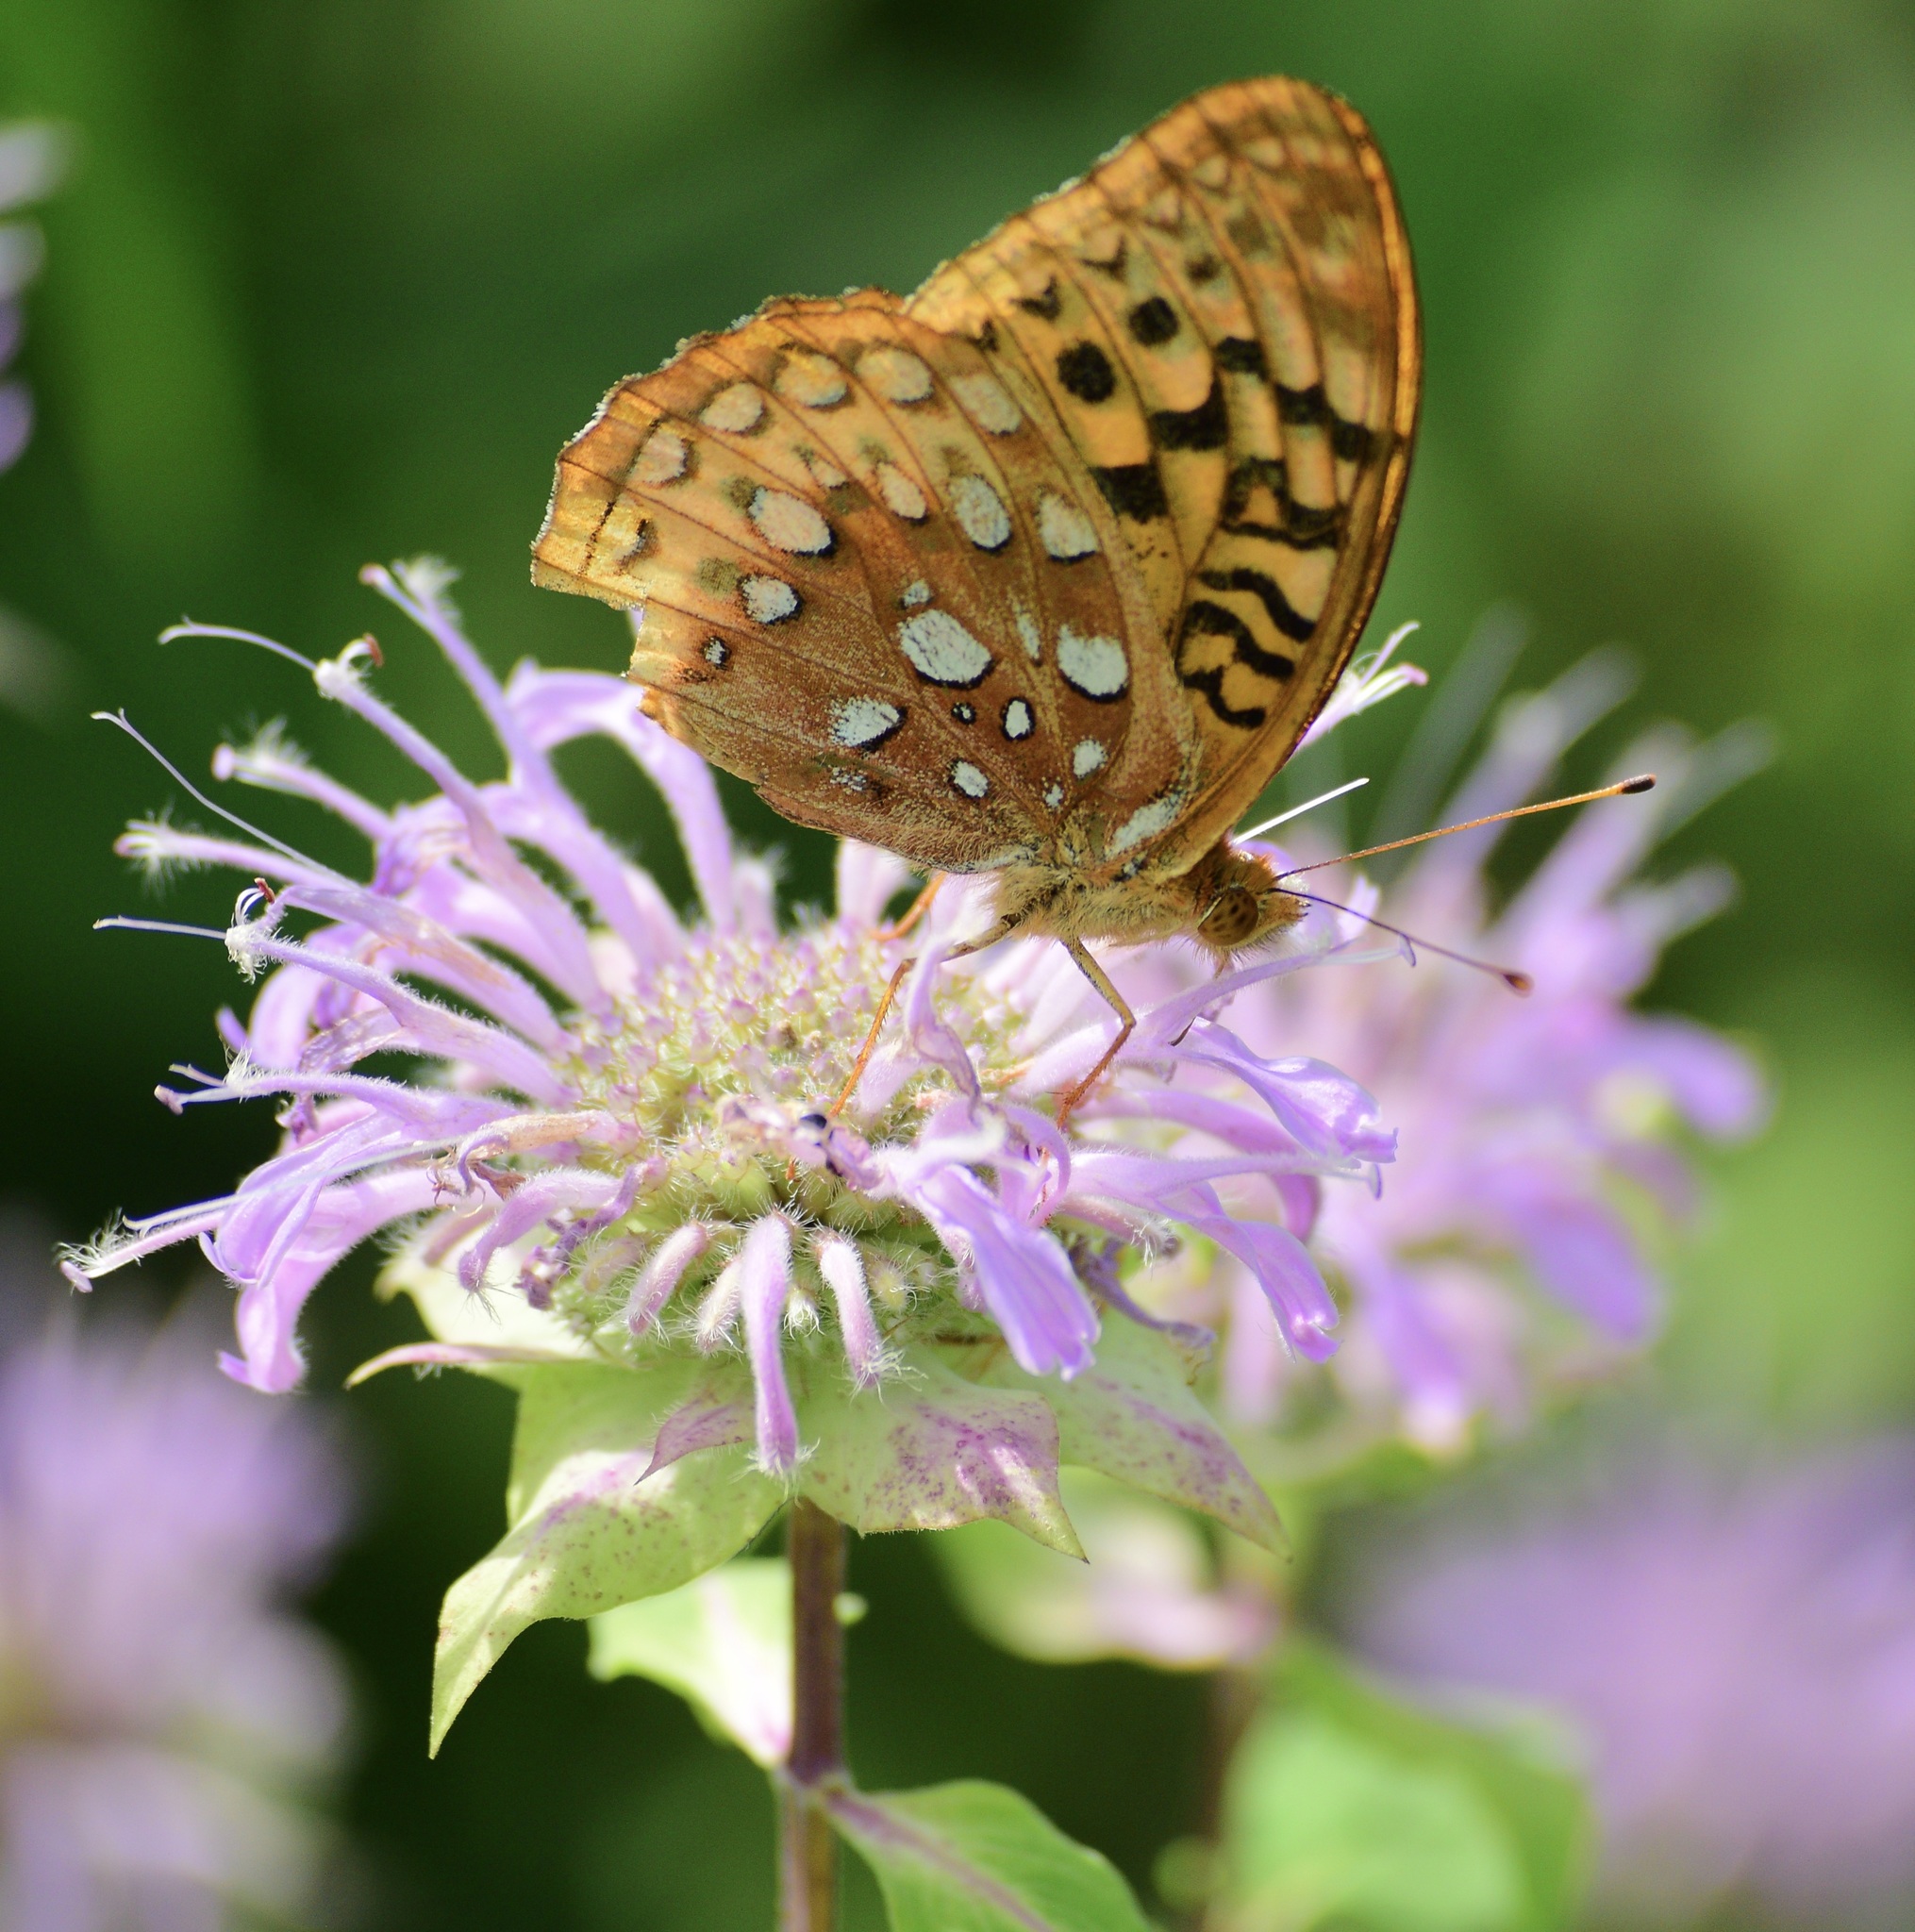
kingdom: Animalia
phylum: Arthropoda
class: Insecta
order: Lepidoptera
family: Nymphalidae
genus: Speyeria
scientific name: Speyeria cybele
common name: Great spangled fritillary
